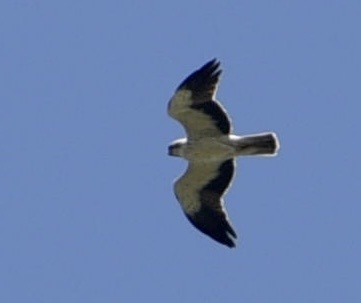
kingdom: Animalia
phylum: Chordata
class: Aves
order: Accipitriformes
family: Accipitridae
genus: Hieraaetus
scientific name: Hieraaetus pennatus
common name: Booted eagle
